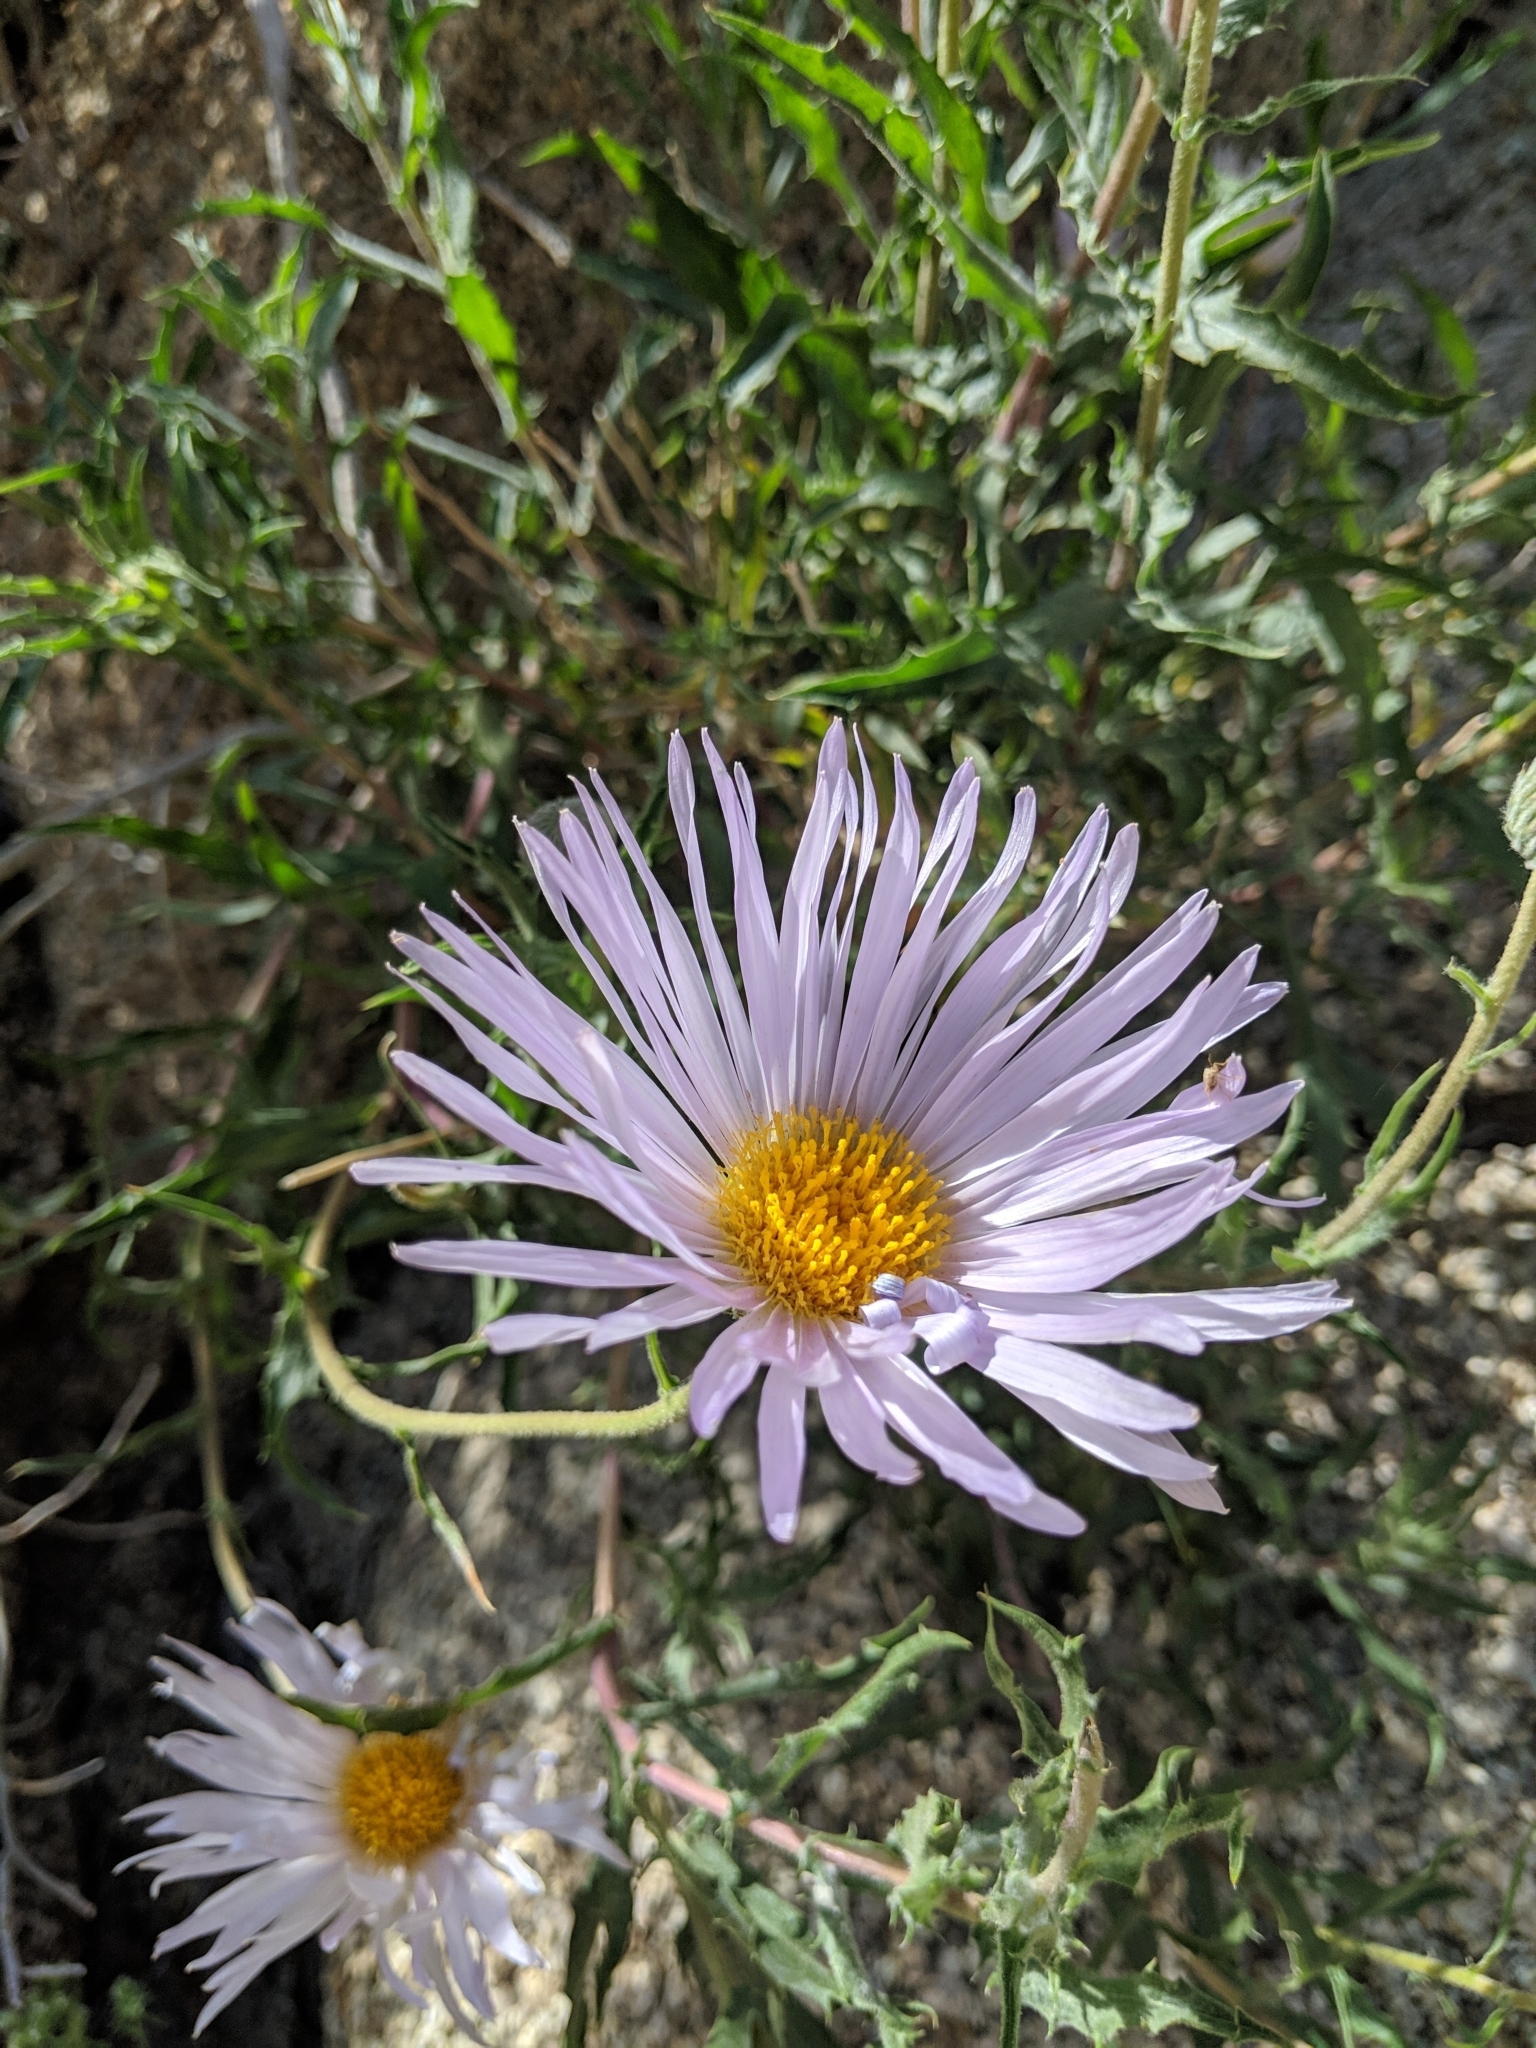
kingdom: Plantae
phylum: Tracheophyta
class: Magnoliopsida
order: Asterales
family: Asteraceae
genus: Xylorhiza
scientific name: Xylorhiza tortifolia
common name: Hurt-leaf woody-aster
